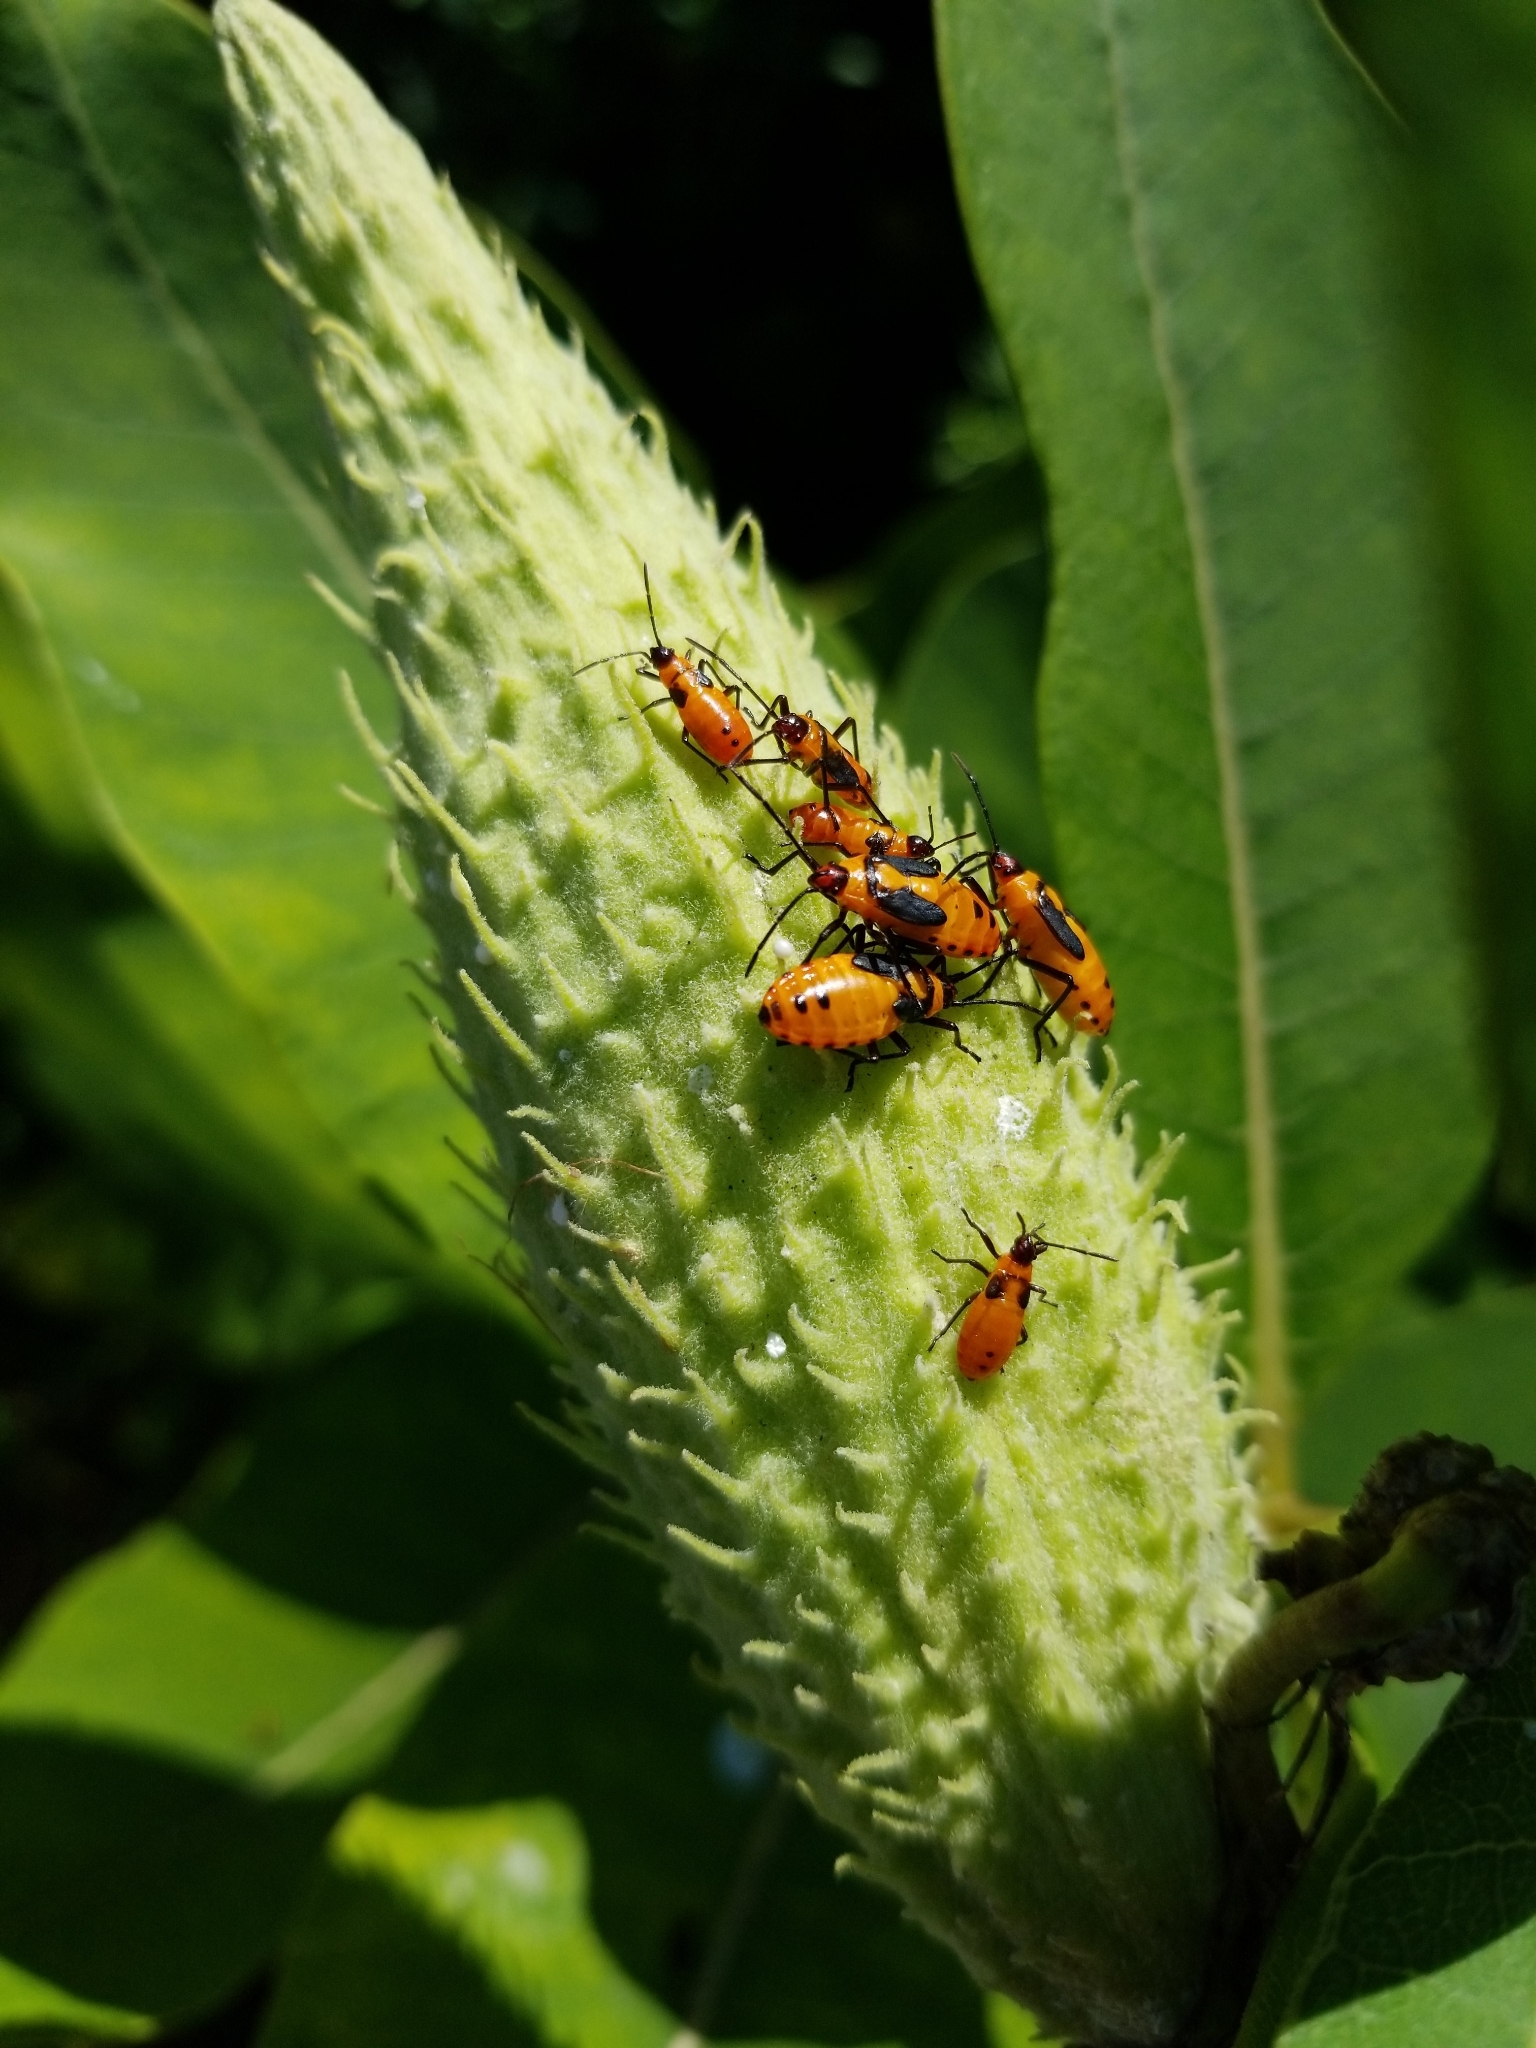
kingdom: Animalia
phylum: Arthropoda
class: Insecta
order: Hemiptera
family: Lygaeidae
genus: Oncopeltus
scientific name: Oncopeltus fasciatus
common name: Large milkweed bug
